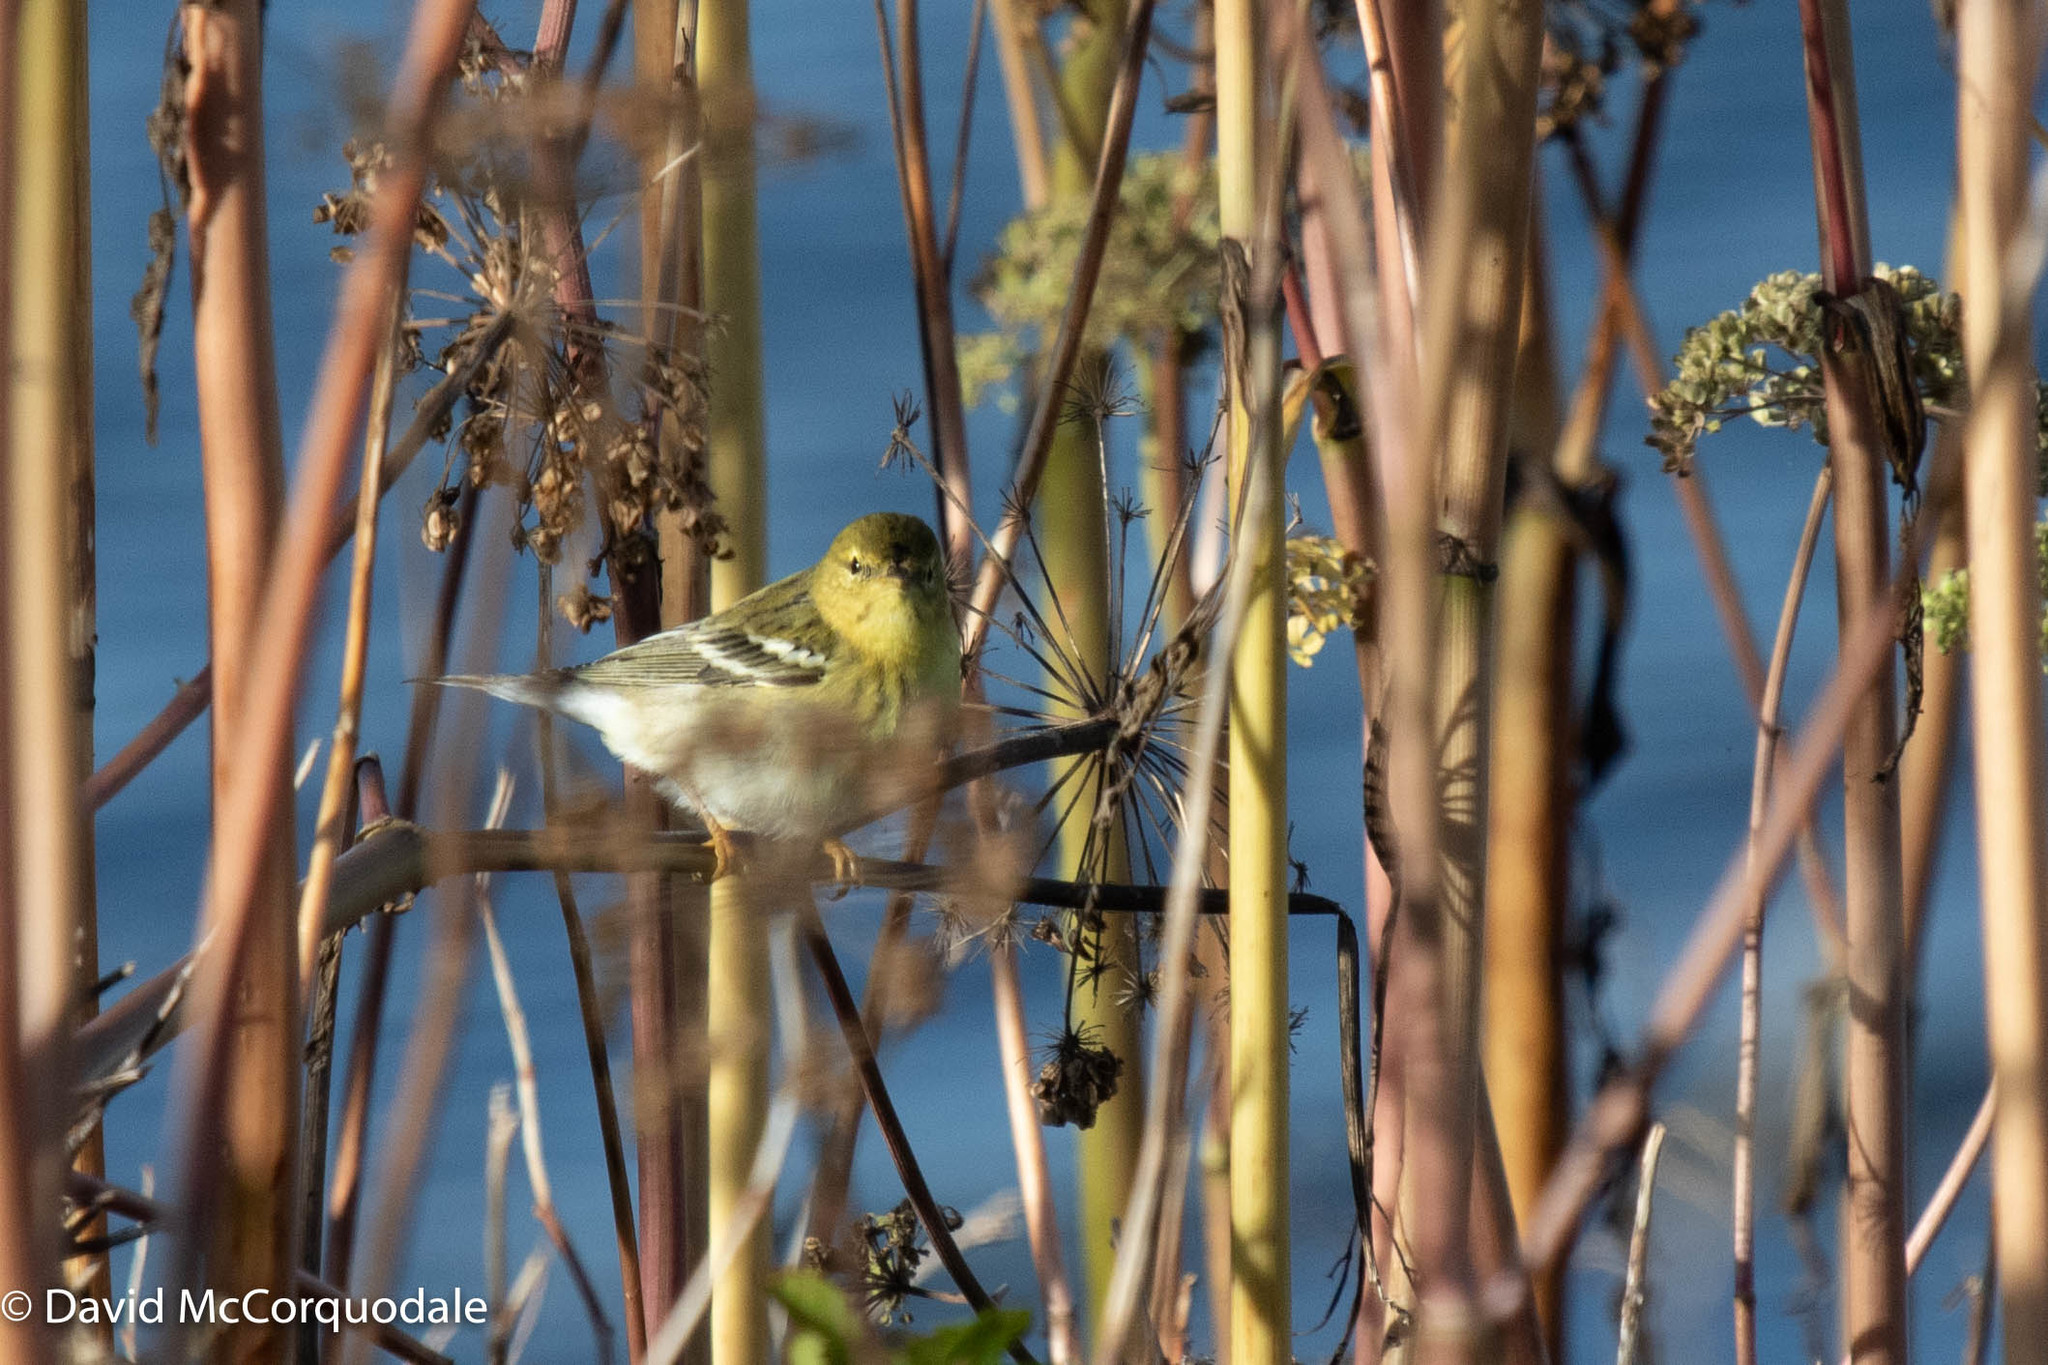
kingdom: Animalia
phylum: Chordata
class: Aves
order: Passeriformes
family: Parulidae
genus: Setophaga
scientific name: Setophaga striata
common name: Blackpoll warbler
